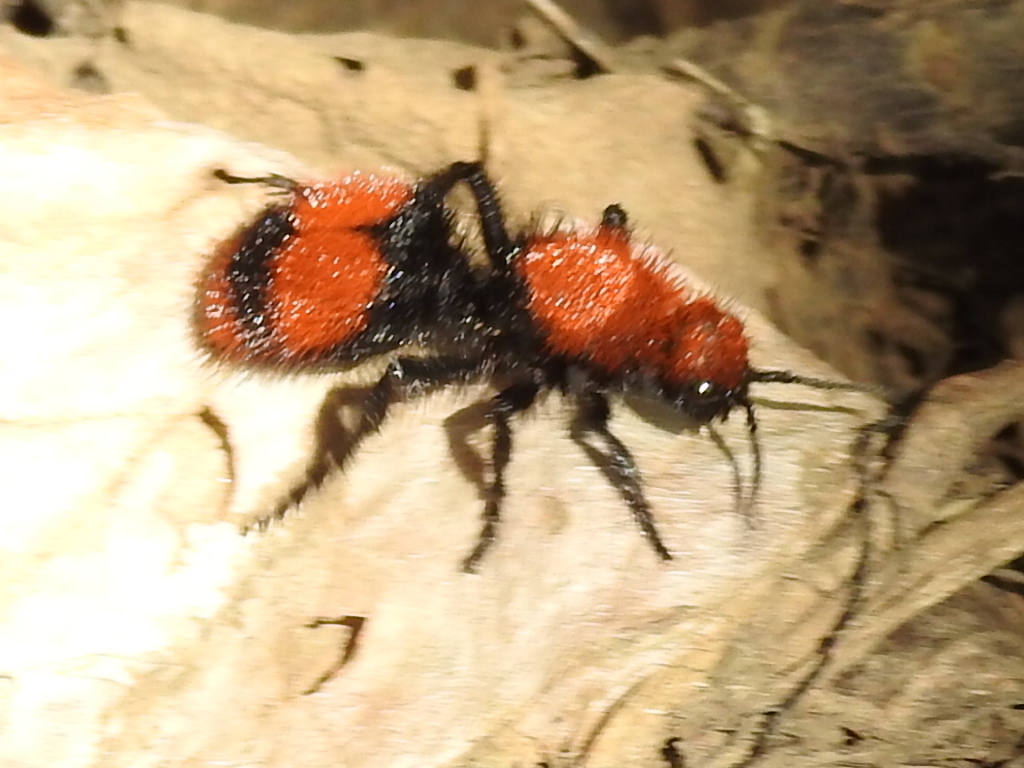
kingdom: Animalia
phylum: Arthropoda
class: Insecta
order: Hymenoptera
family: Mutillidae
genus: Dasymutilla
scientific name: Dasymutilla occidentalis
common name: Common eastern velvet ant
